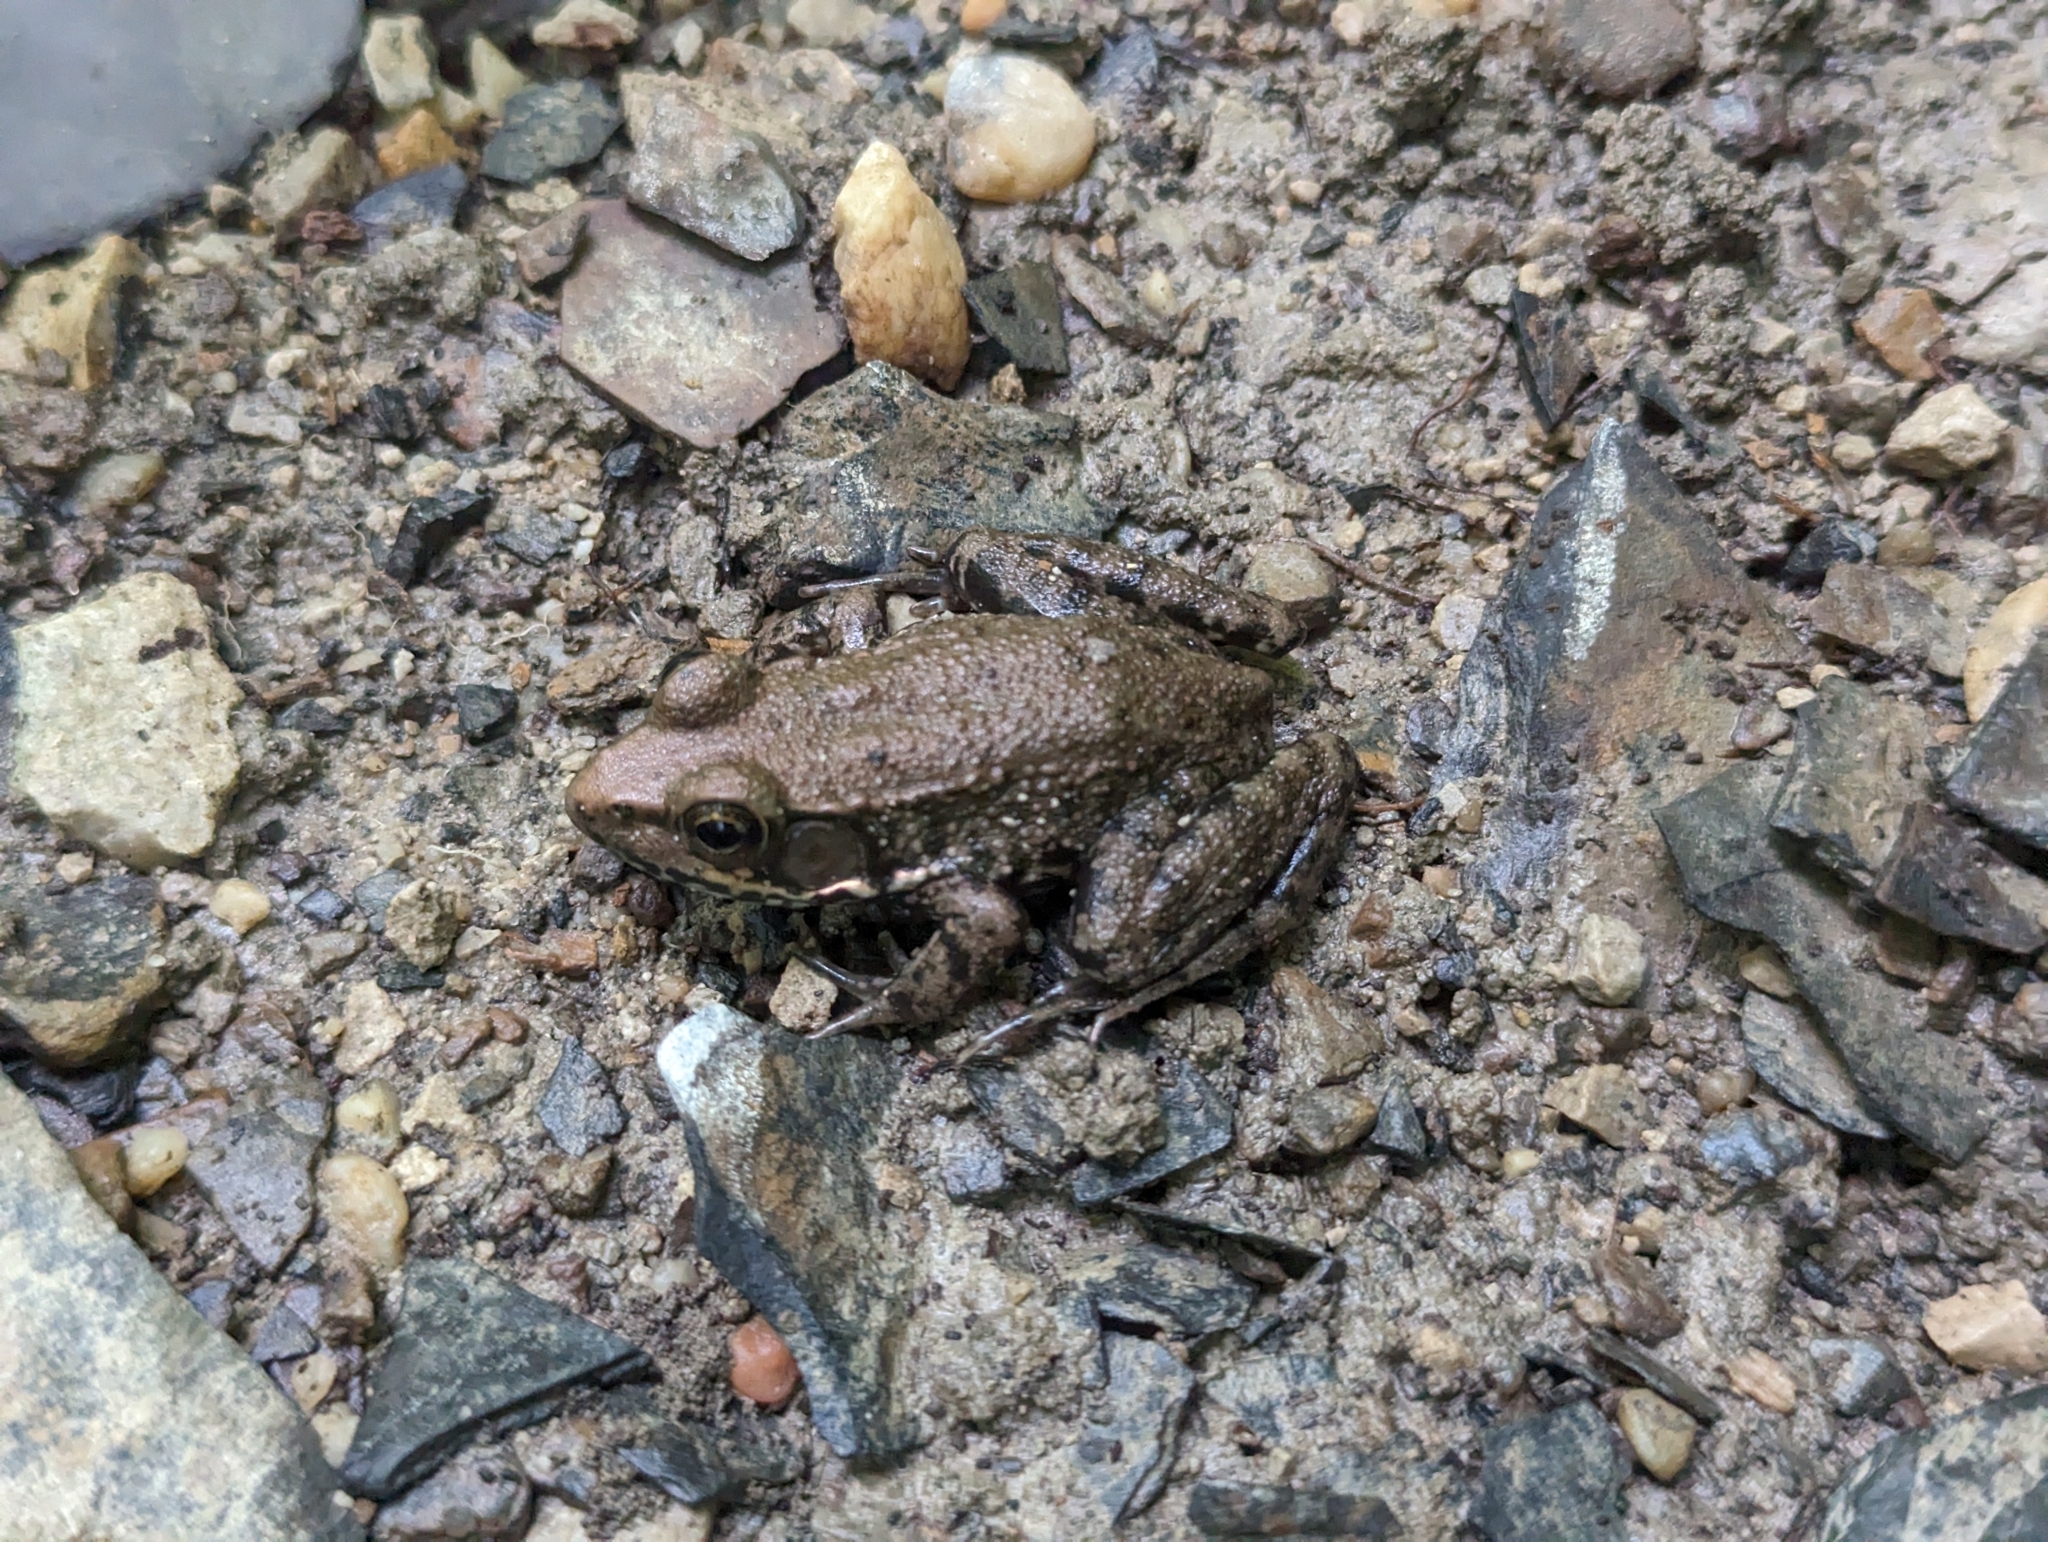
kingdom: Animalia
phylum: Chordata
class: Amphibia
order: Anura
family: Ranidae
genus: Lithobates
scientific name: Lithobates clamitans
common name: Green frog
